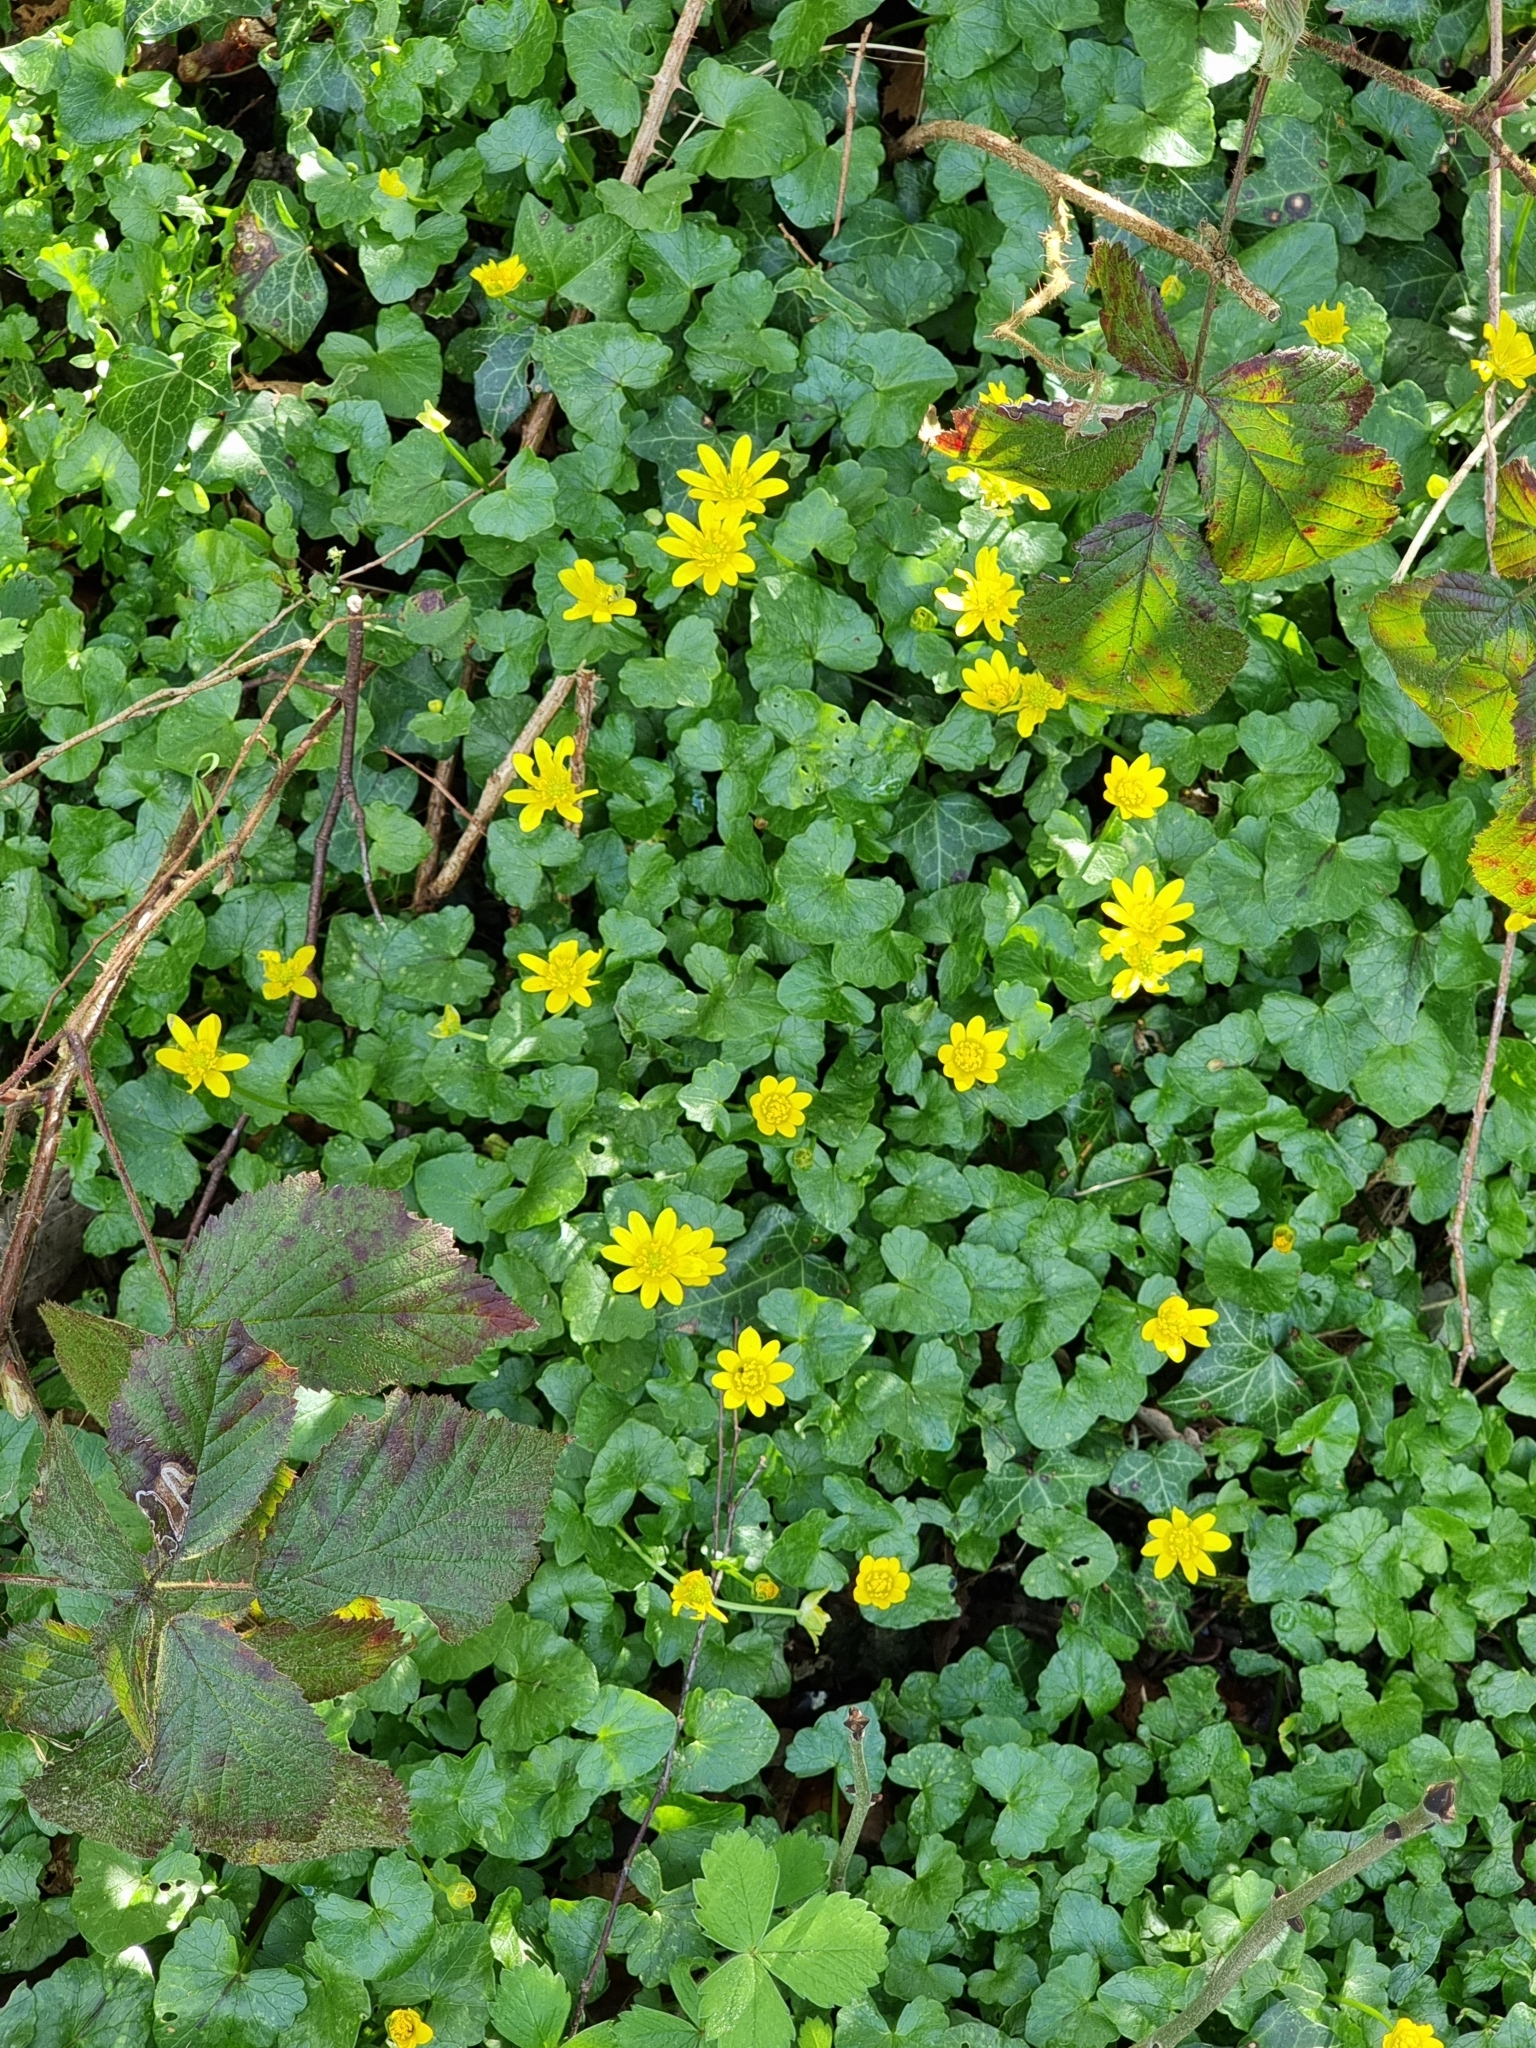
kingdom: Plantae
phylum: Tracheophyta
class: Magnoliopsida
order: Ranunculales
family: Ranunculaceae
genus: Ficaria
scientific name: Ficaria verna
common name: Lesser celandine
